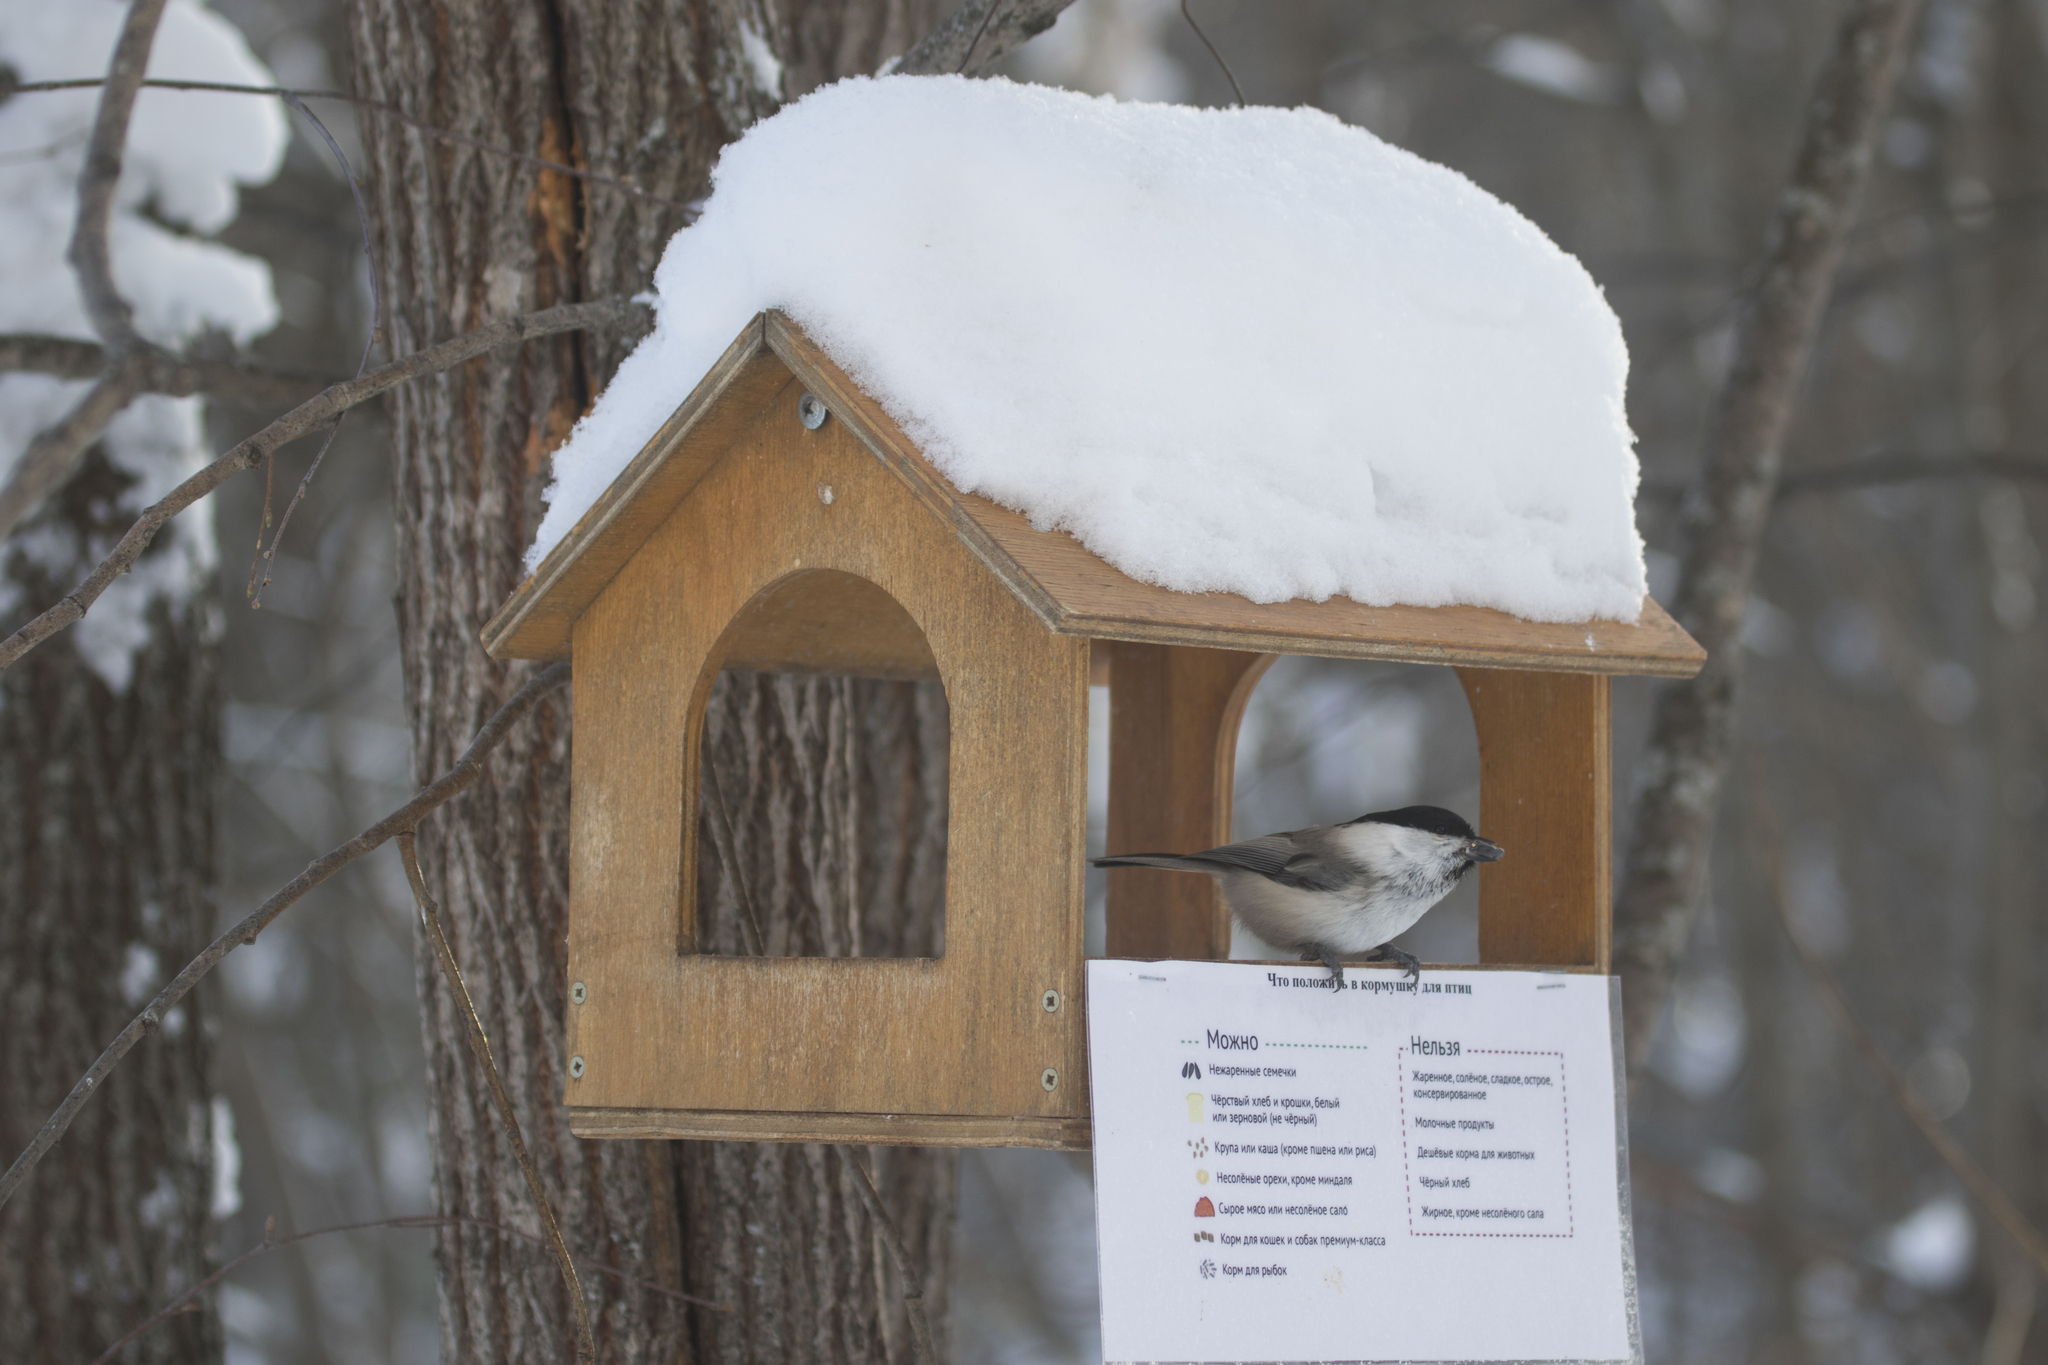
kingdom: Animalia
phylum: Chordata
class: Aves
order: Passeriformes
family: Paridae
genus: Poecile
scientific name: Poecile montanus
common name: Willow tit
